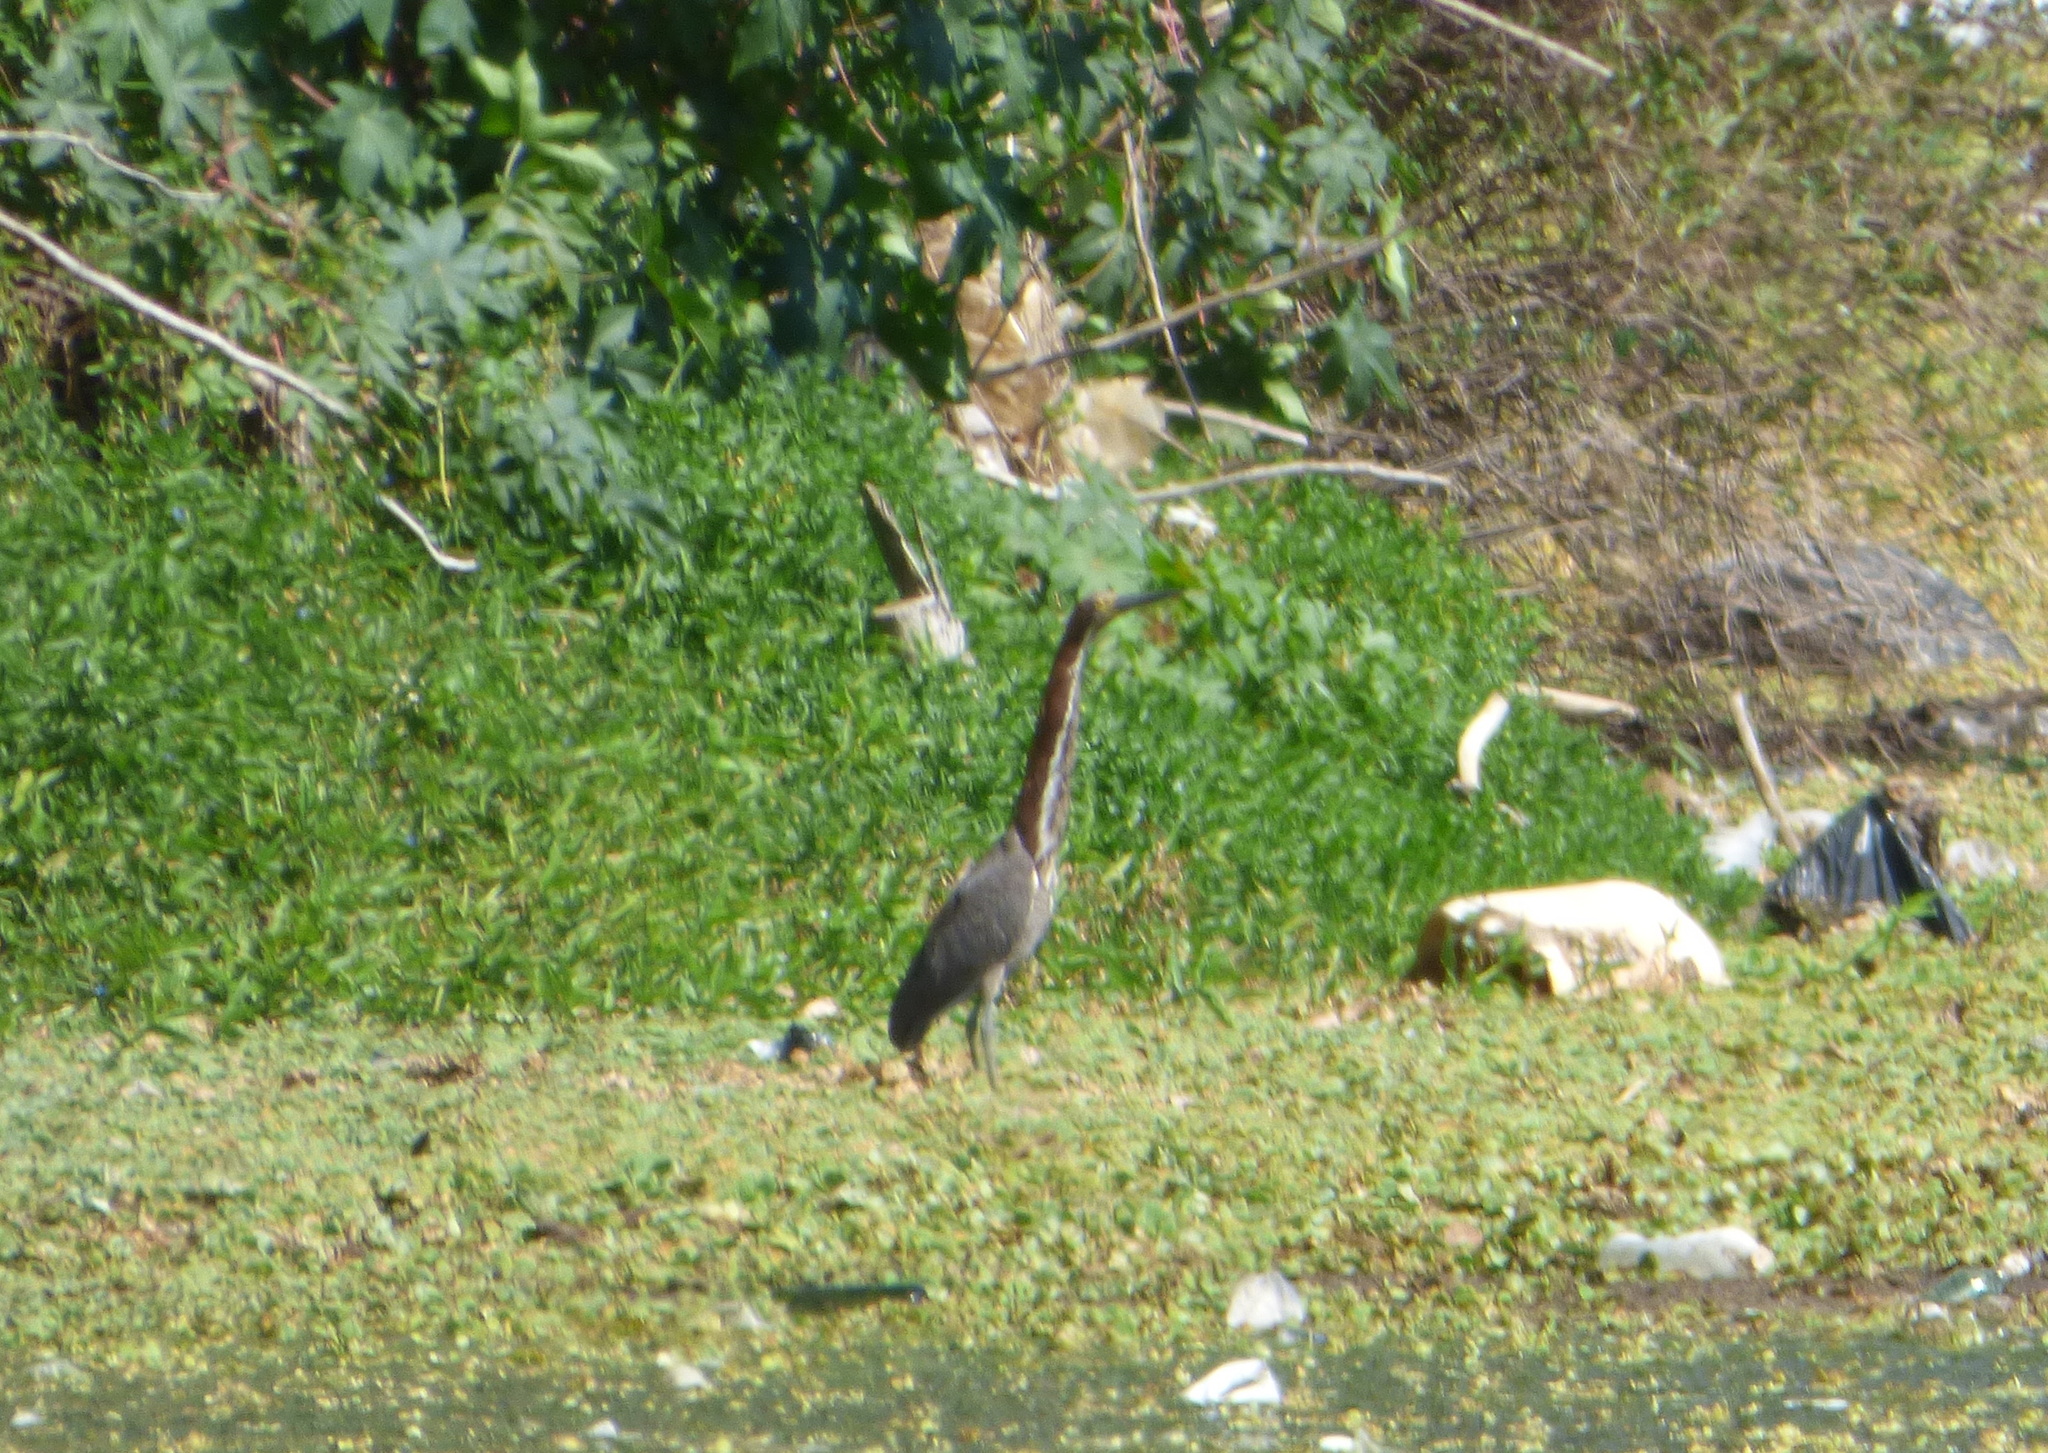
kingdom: Animalia
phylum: Chordata
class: Aves
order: Pelecaniformes
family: Ardeidae
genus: Tigrisoma
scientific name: Tigrisoma lineatum
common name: Rufescent tiger-heron
